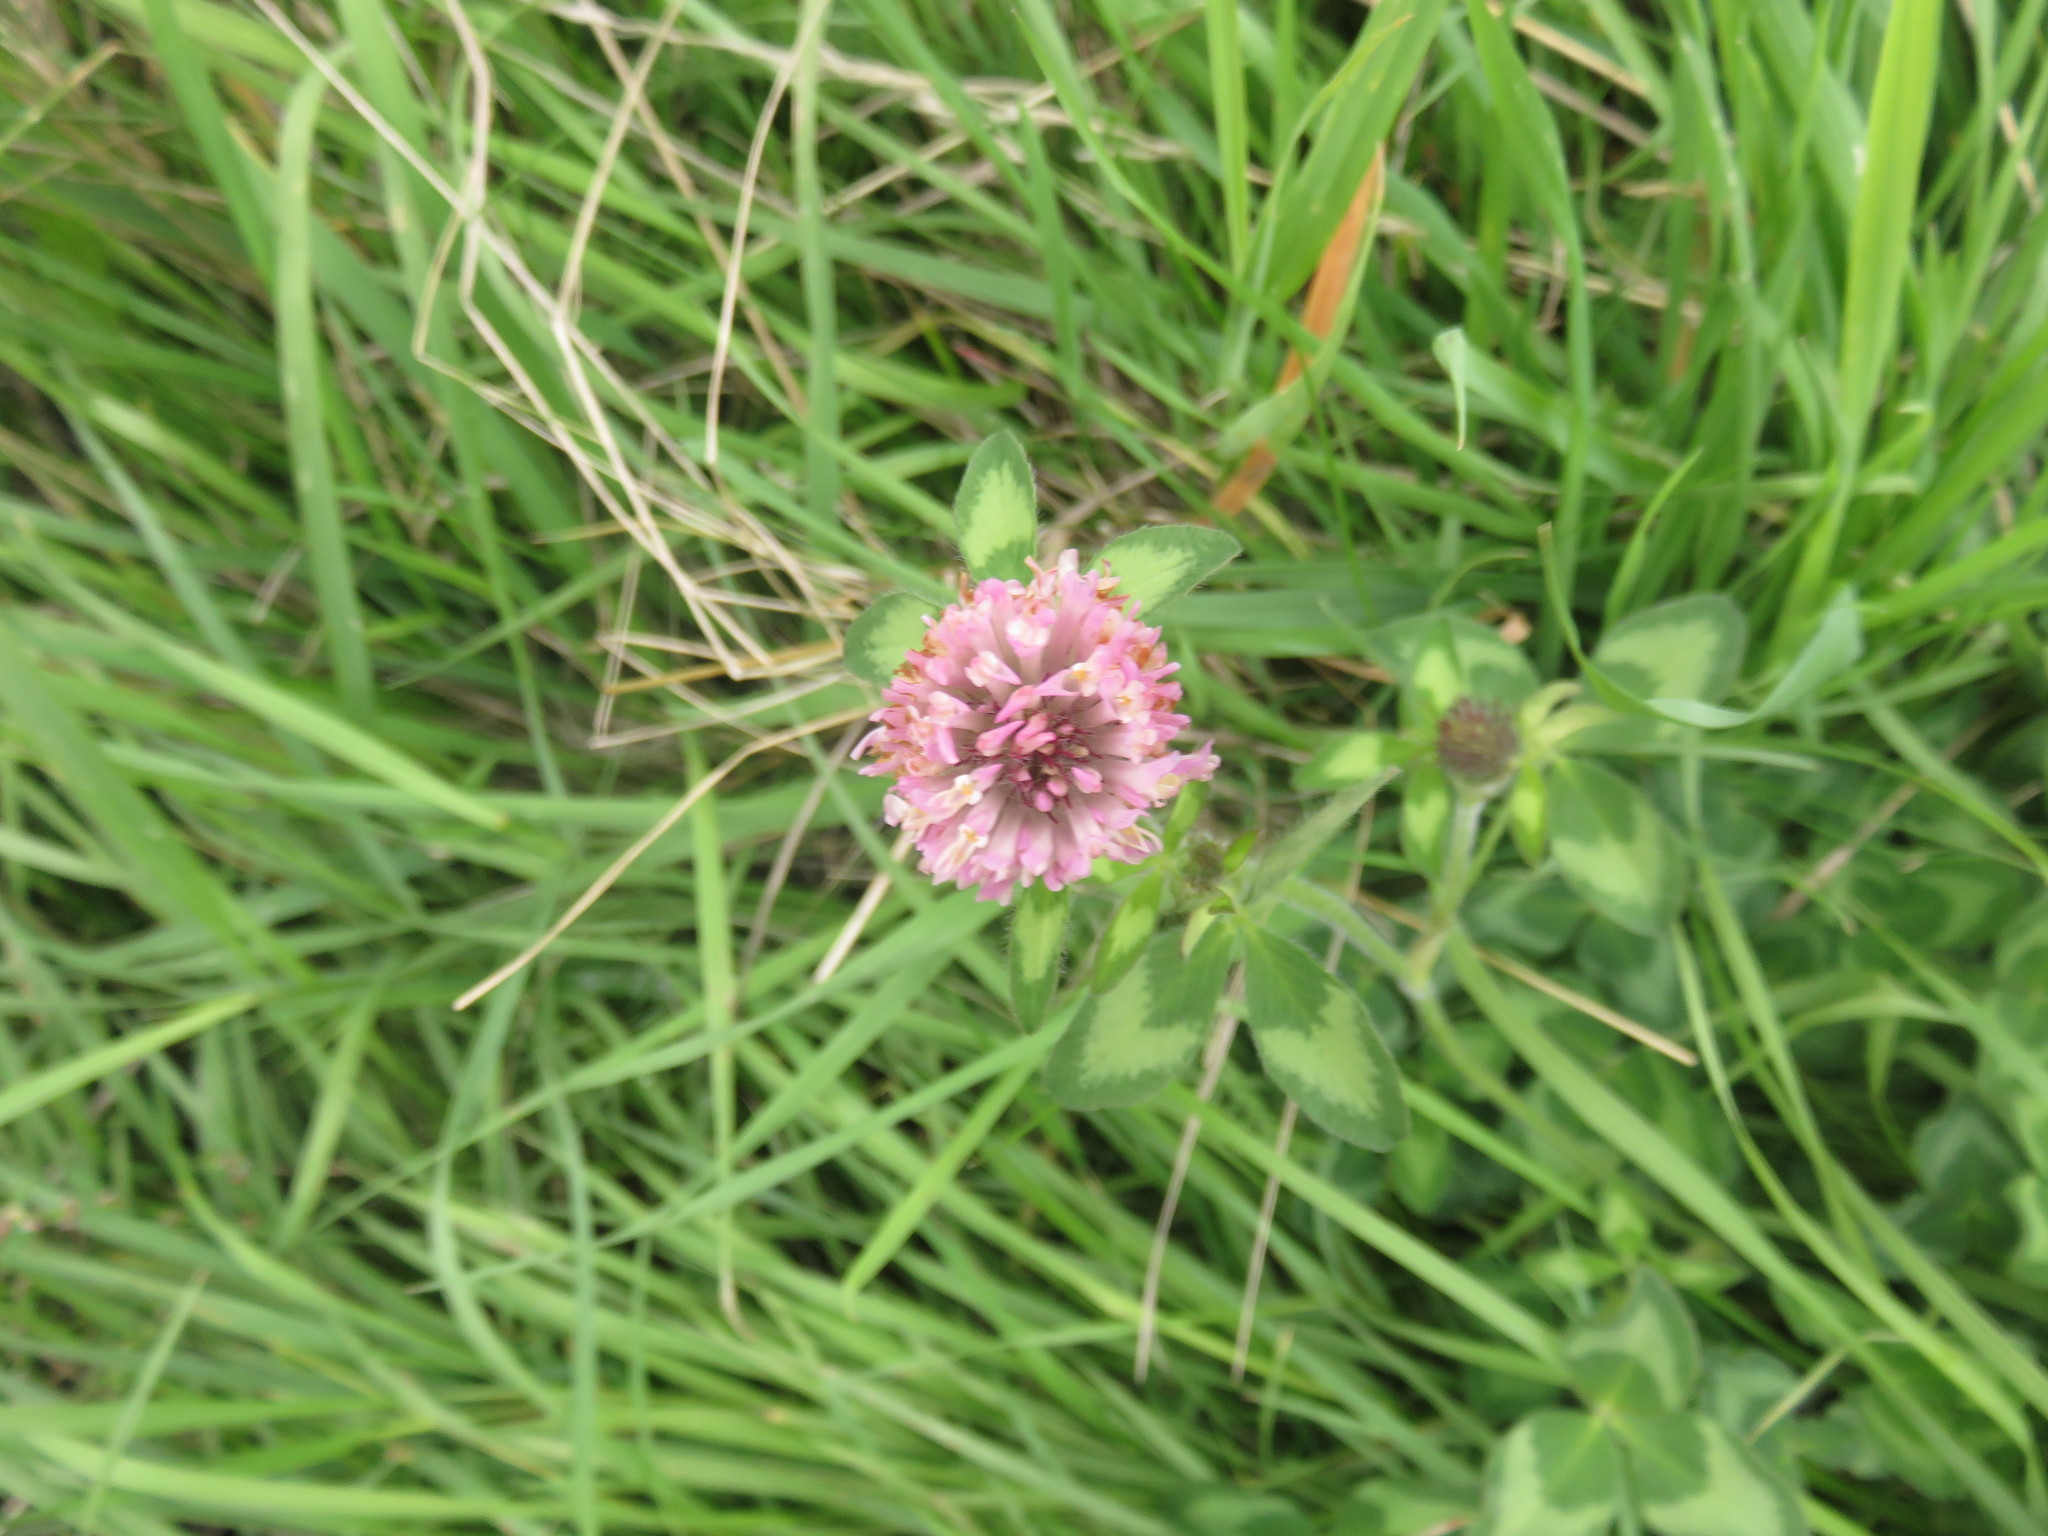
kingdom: Plantae
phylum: Tracheophyta
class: Magnoliopsida
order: Fabales
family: Fabaceae
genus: Trifolium
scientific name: Trifolium pratense
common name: Red clover
